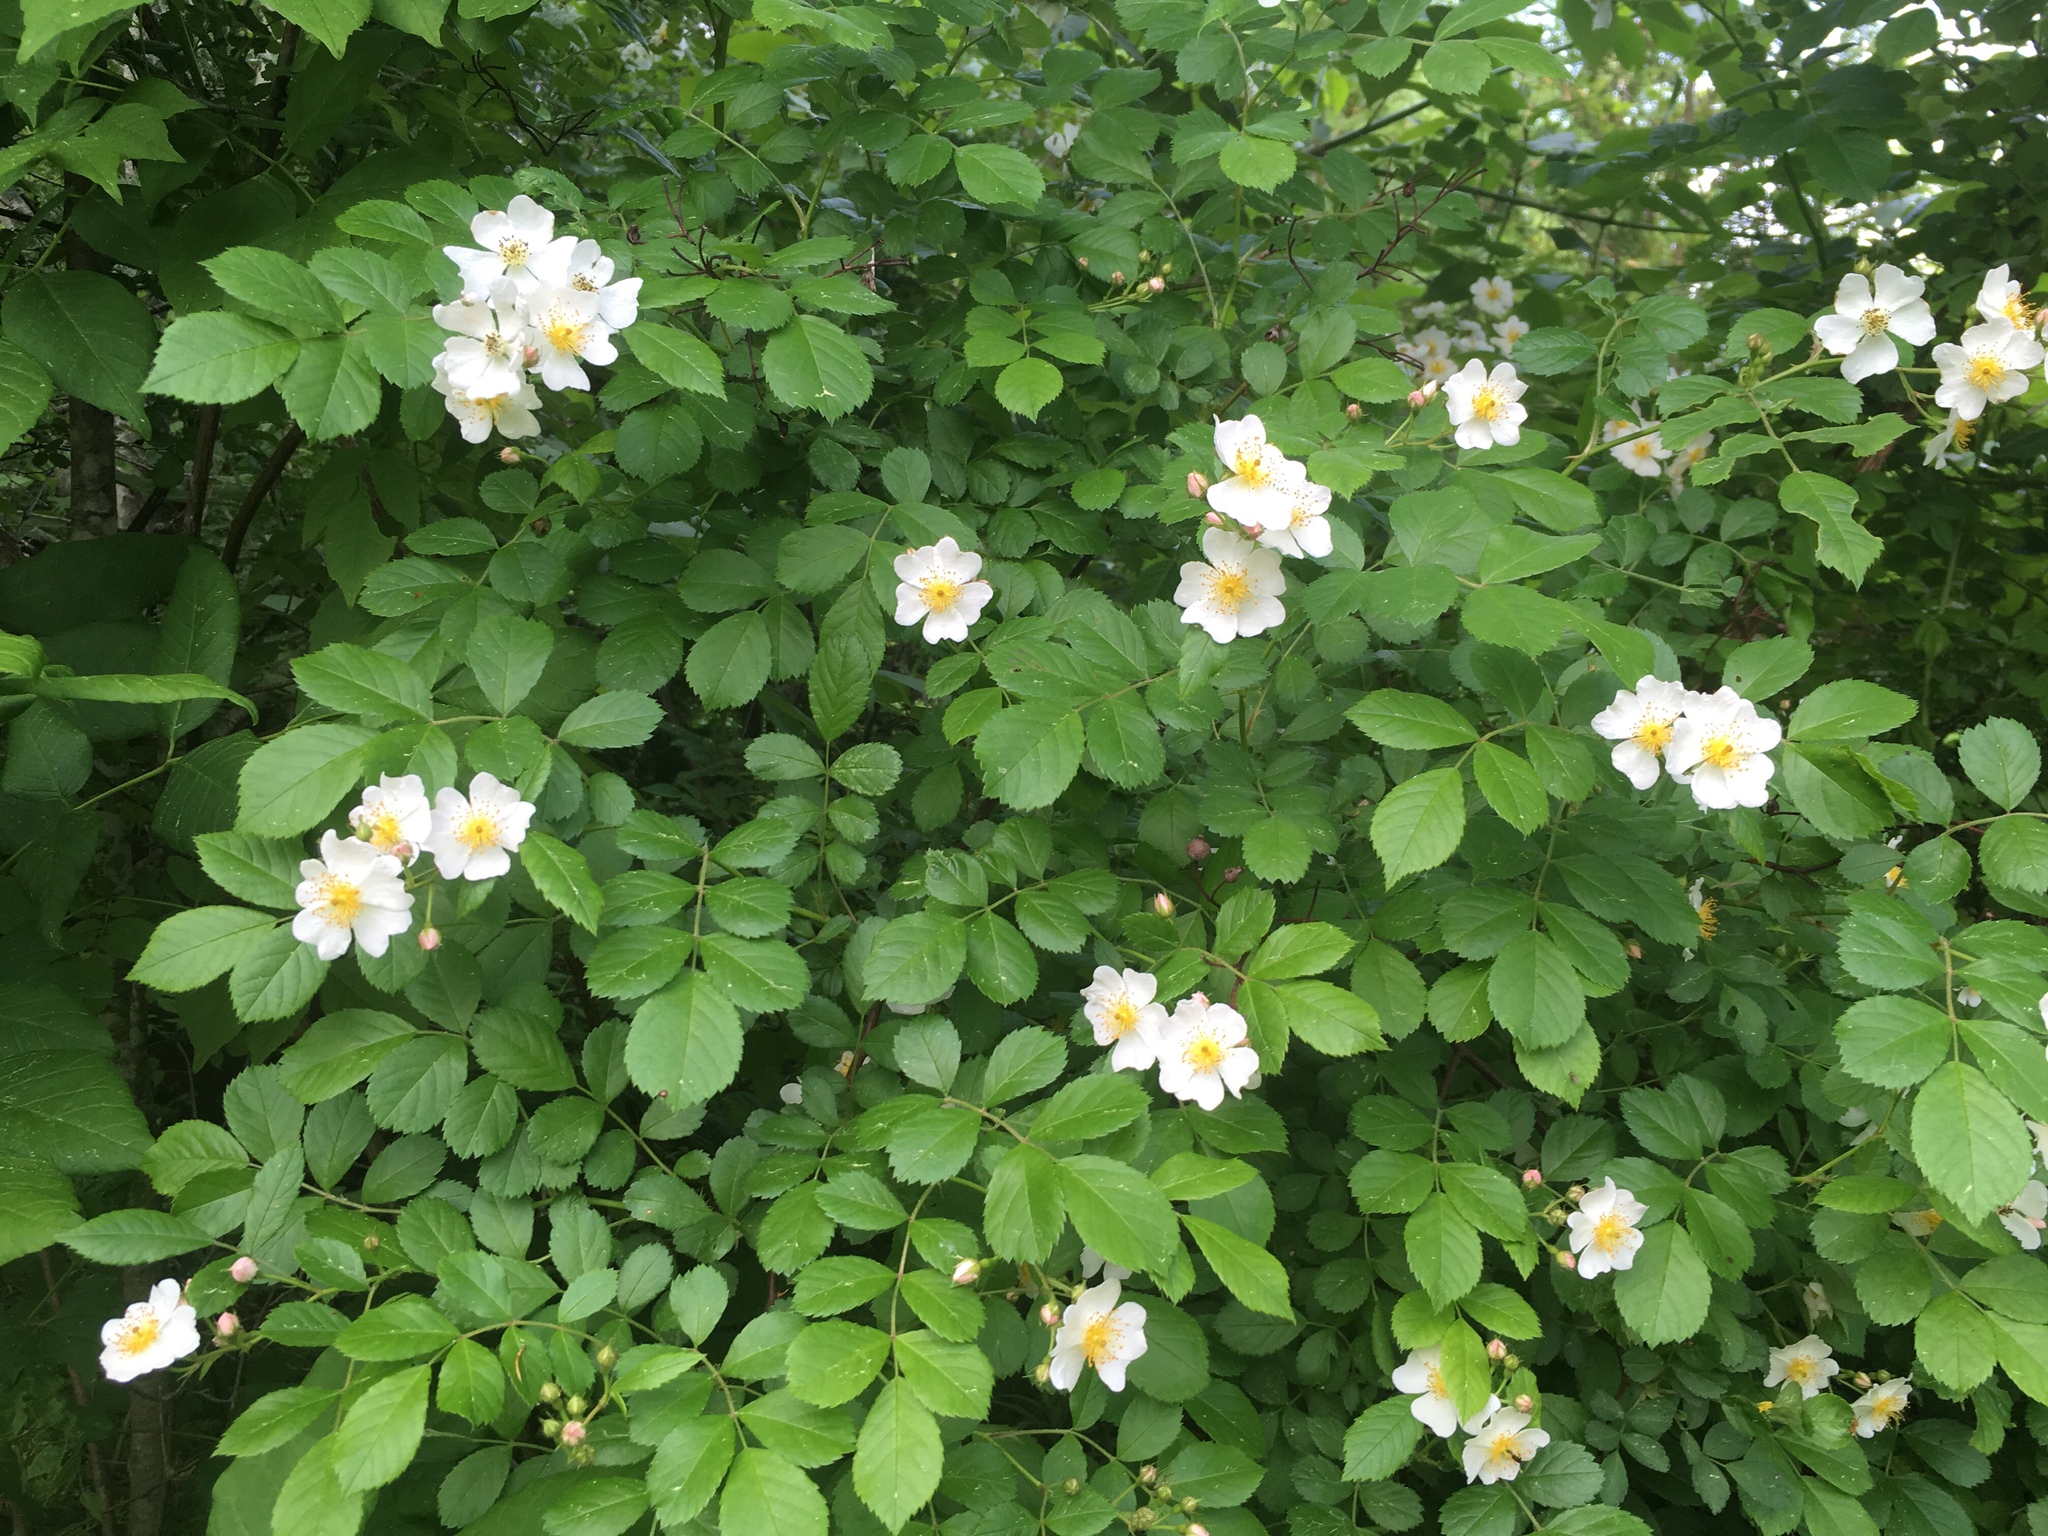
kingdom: Plantae
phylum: Tracheophyta
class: Magnoliopsida
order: Rosales
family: Rosaceae
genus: Rosa
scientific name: Rosa multiflora
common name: Multiflora rose
